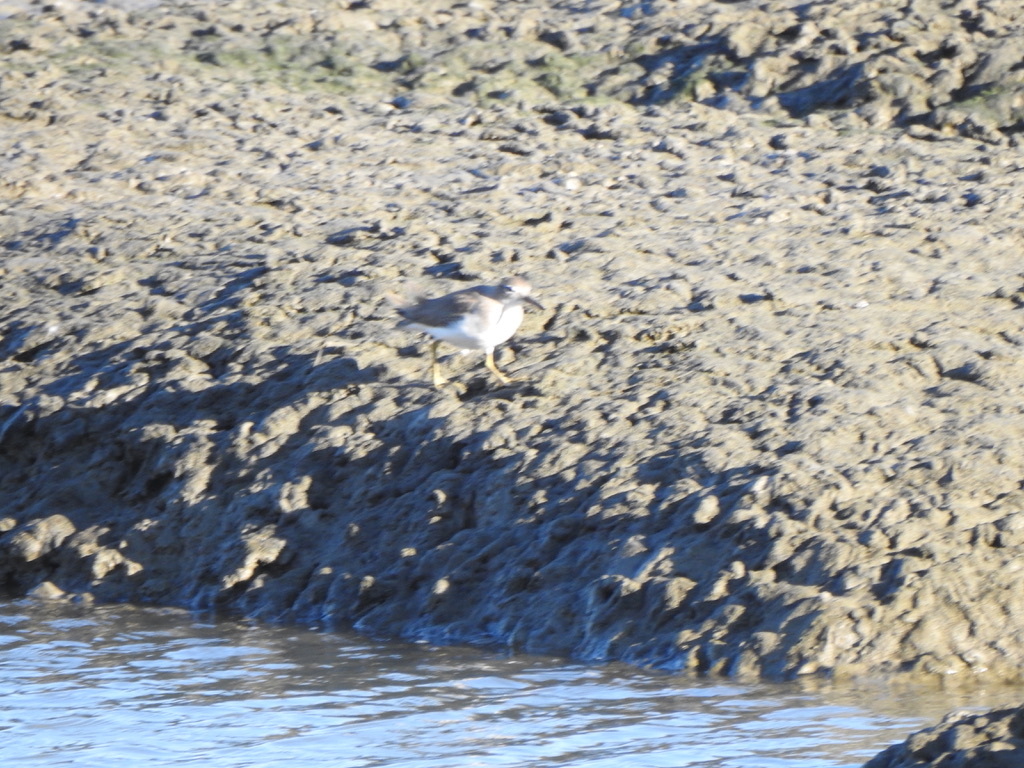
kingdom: Animalia
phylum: Chordata
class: Aves
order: Charadriiformes
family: Scolopacidae
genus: Actitis
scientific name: Actitis macularius
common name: Spotted sandpiper
